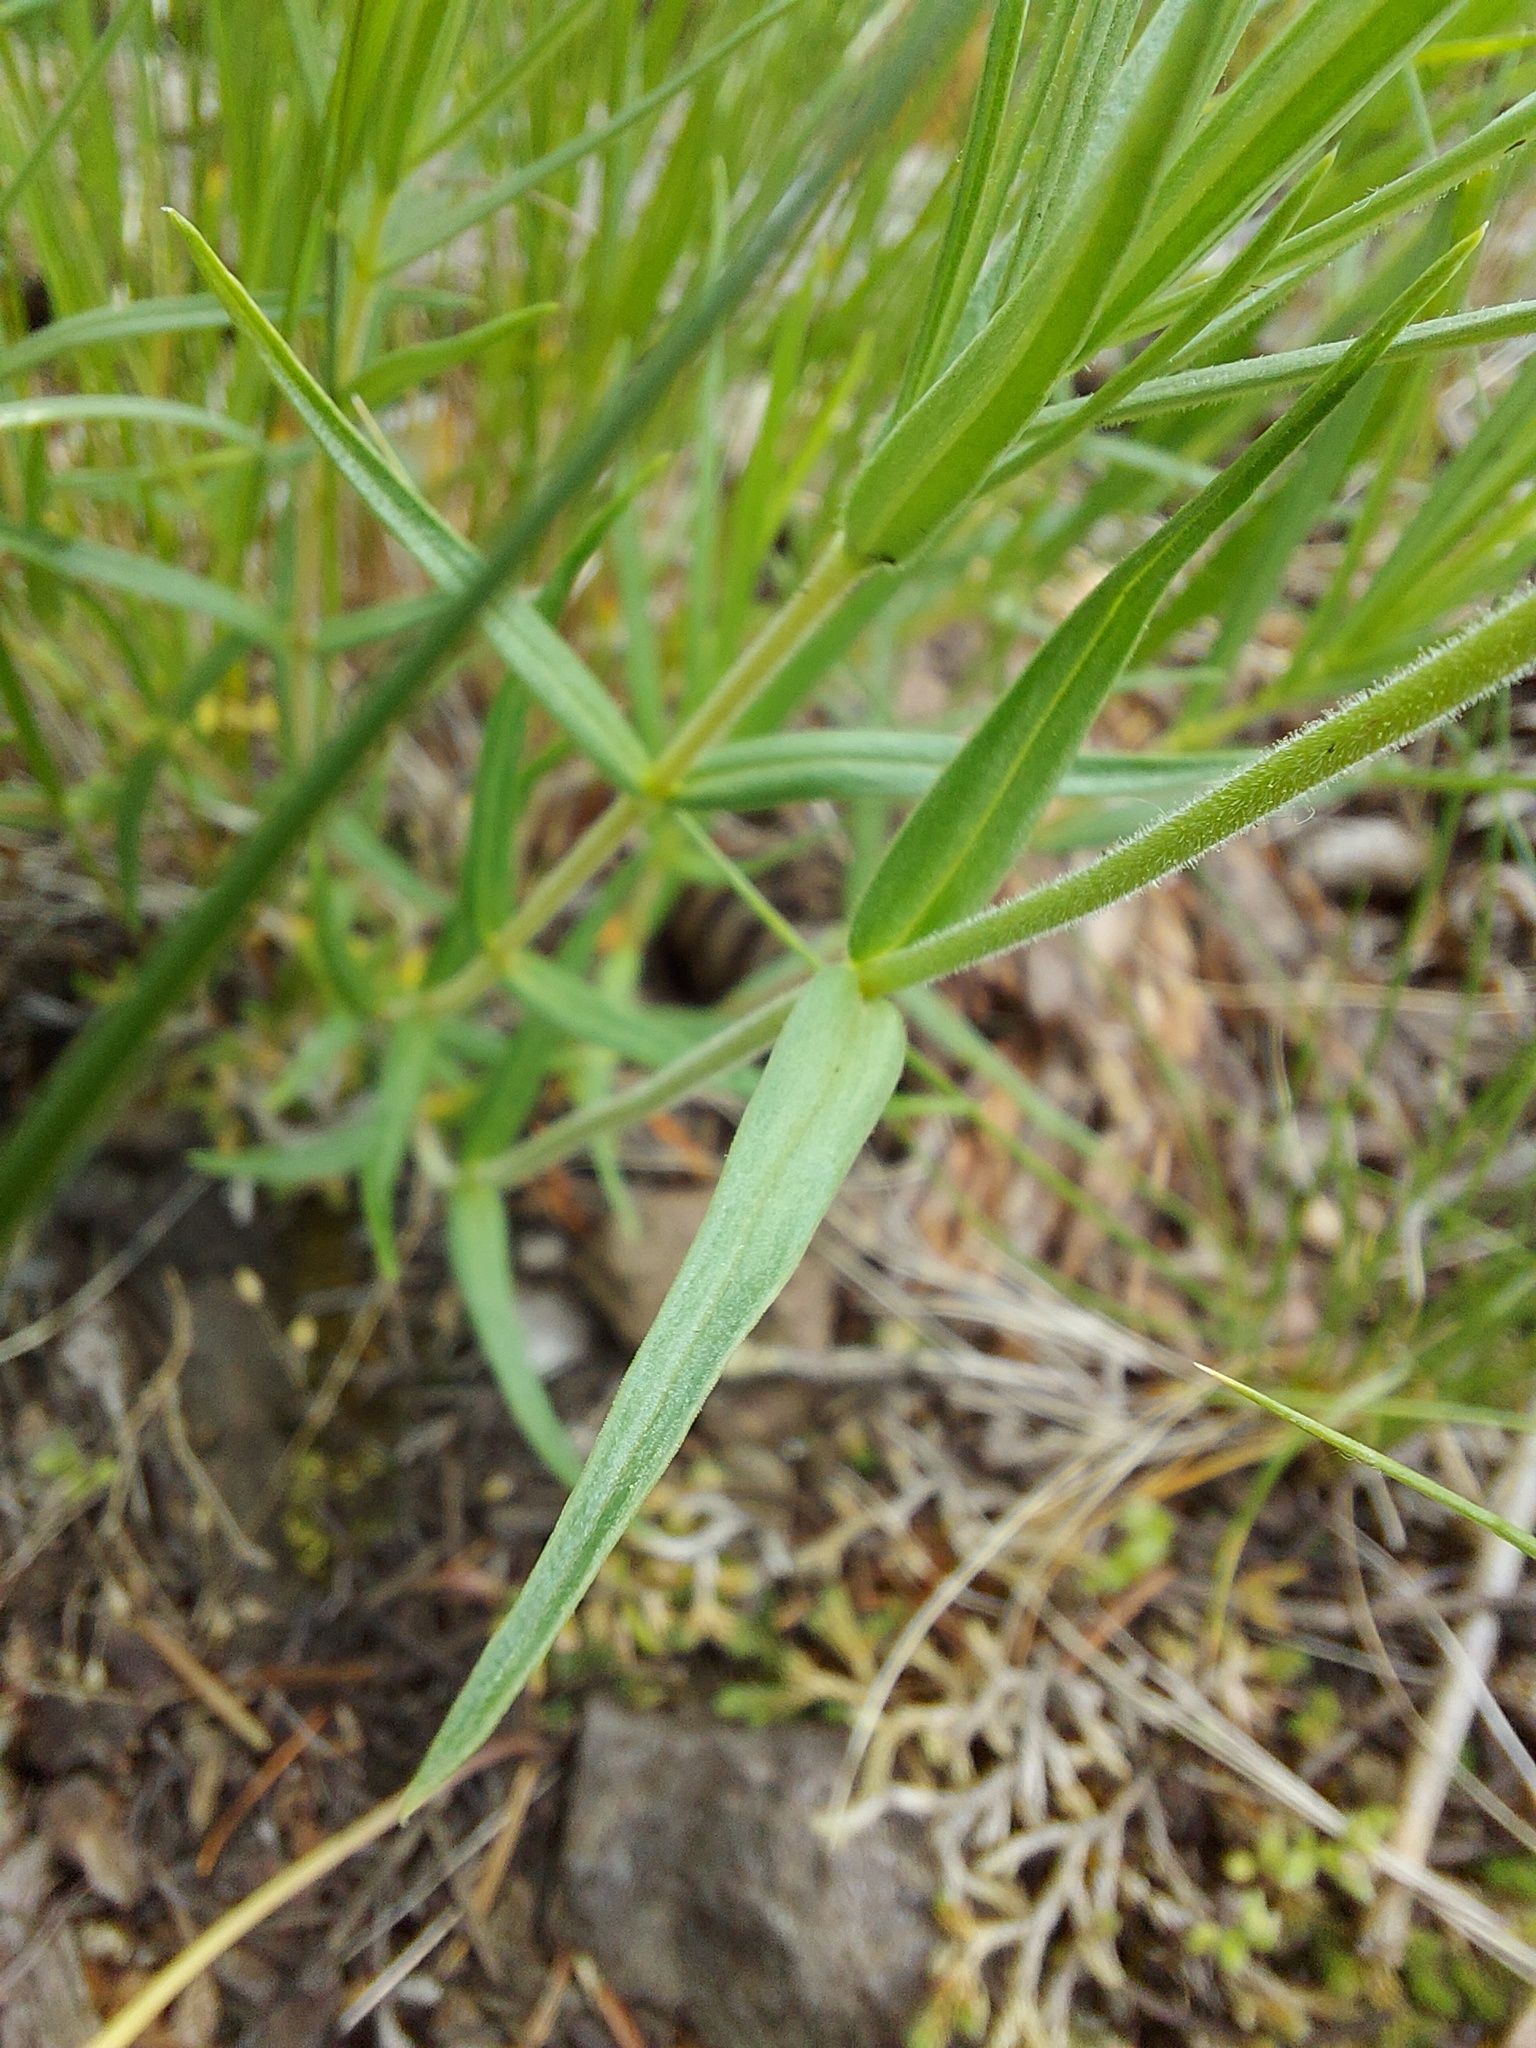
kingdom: Plantae
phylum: Tracheophyta
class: Magnoliopsida
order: Ericales
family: Polemoniaceae
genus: Phlox
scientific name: Phlox speciosa
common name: Bush phlox
